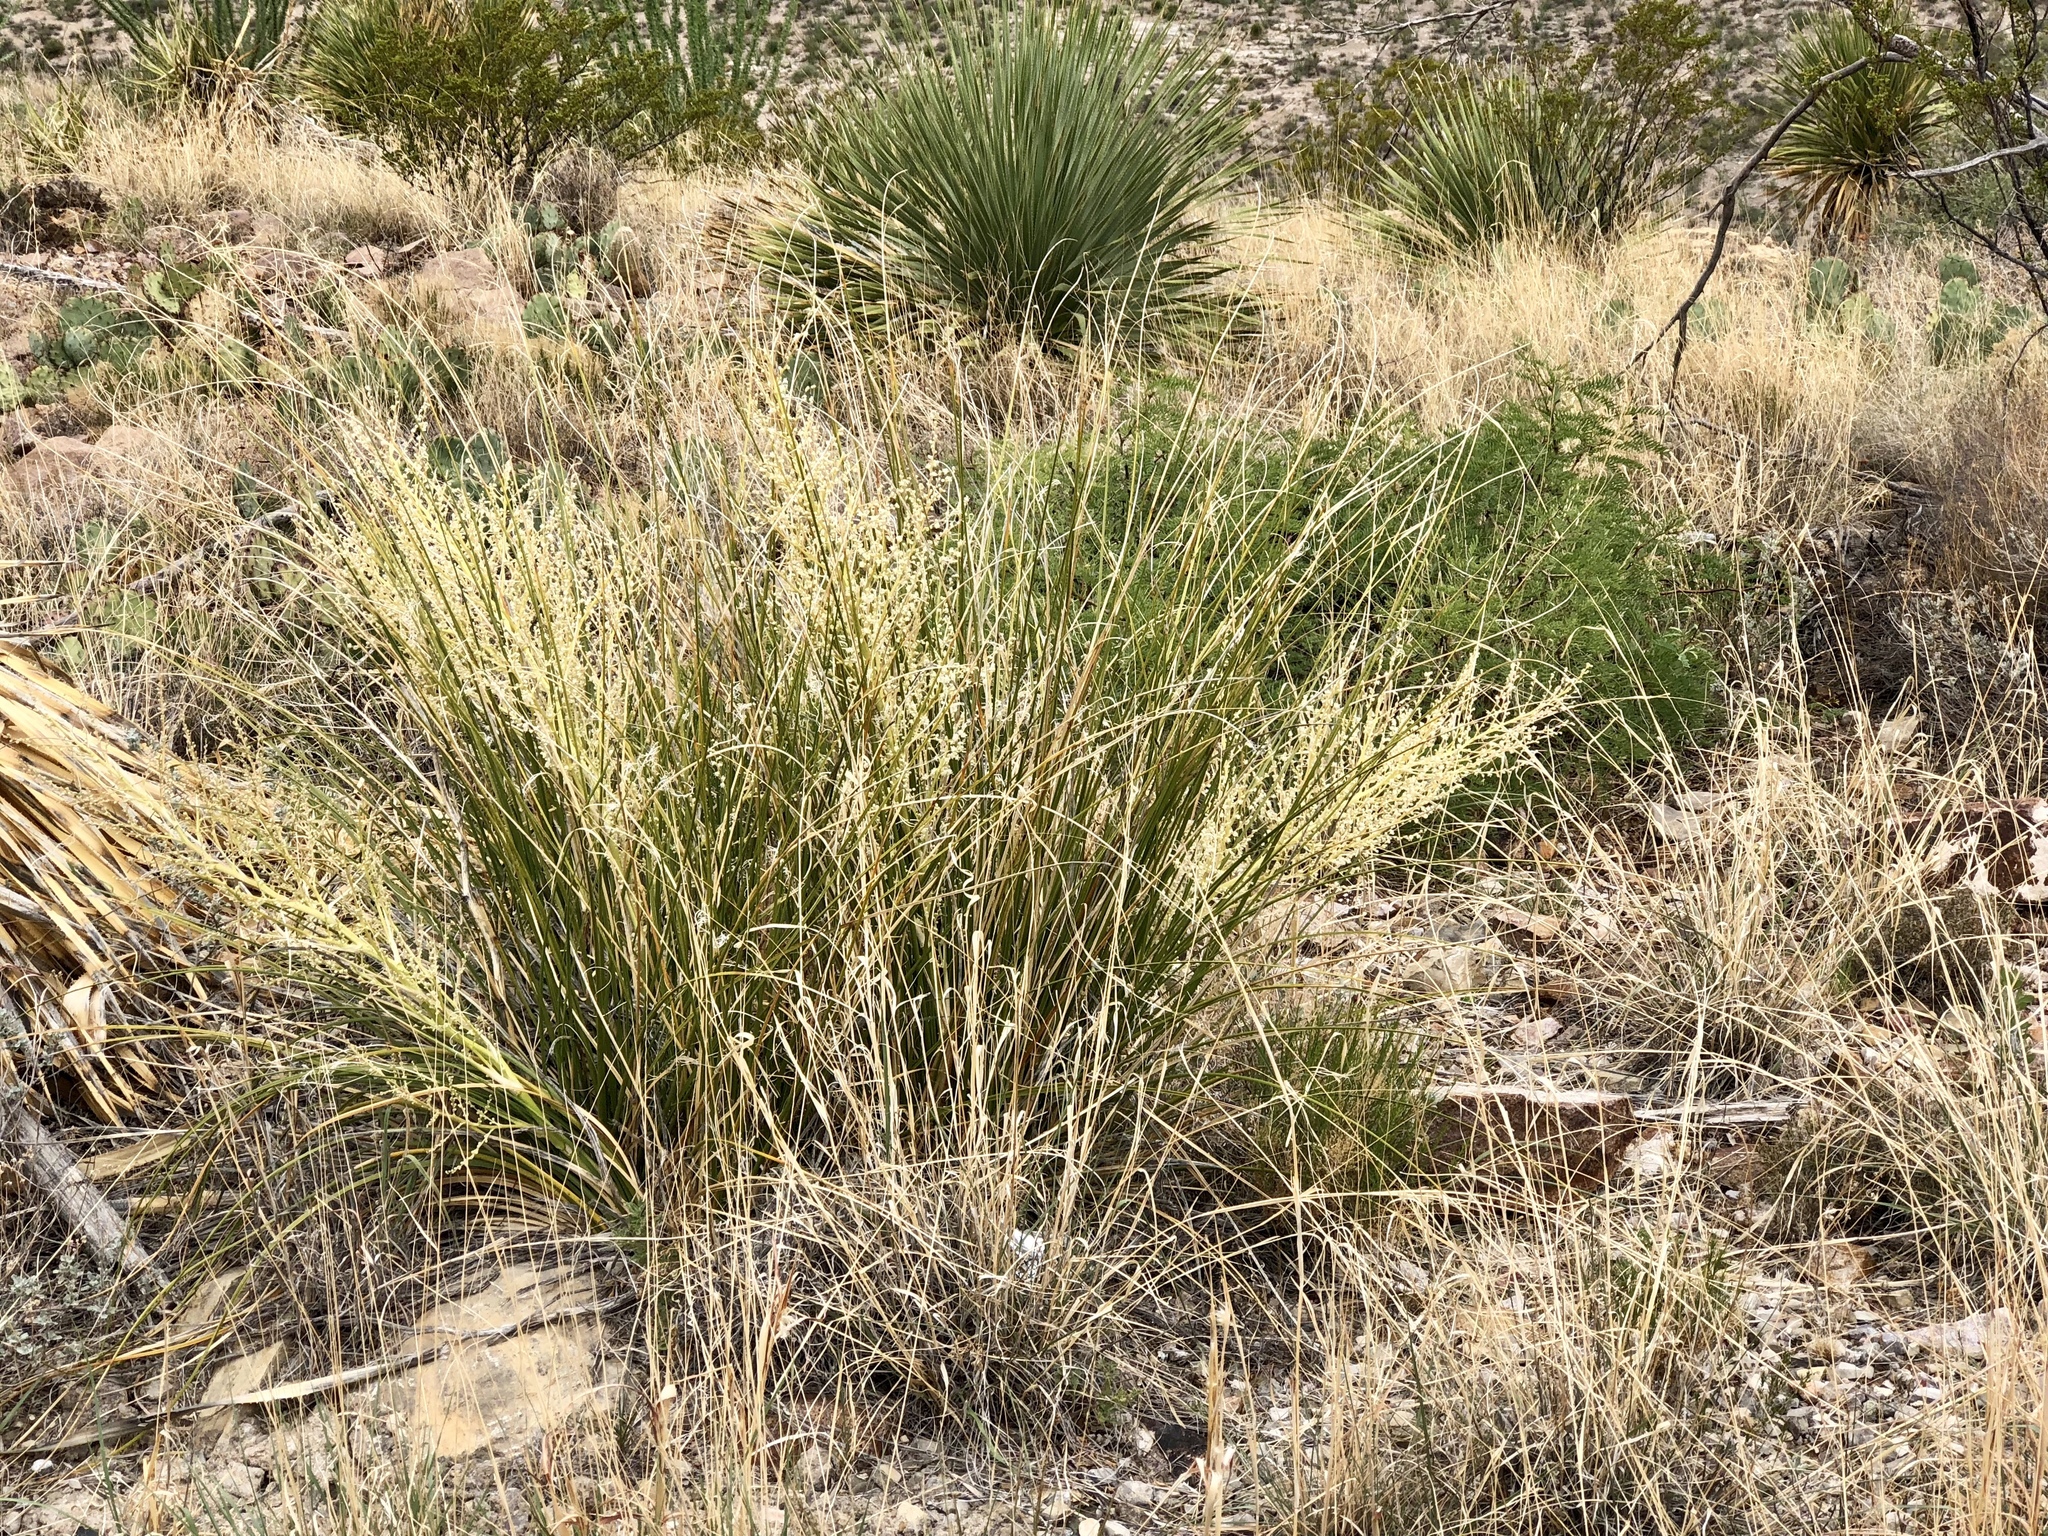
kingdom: Plantae
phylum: Tracheophyta
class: Liliopsida
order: Asparagales
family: Asparagaceae
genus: Nolina
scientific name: Nolina microcarpa
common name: Bear-grass
